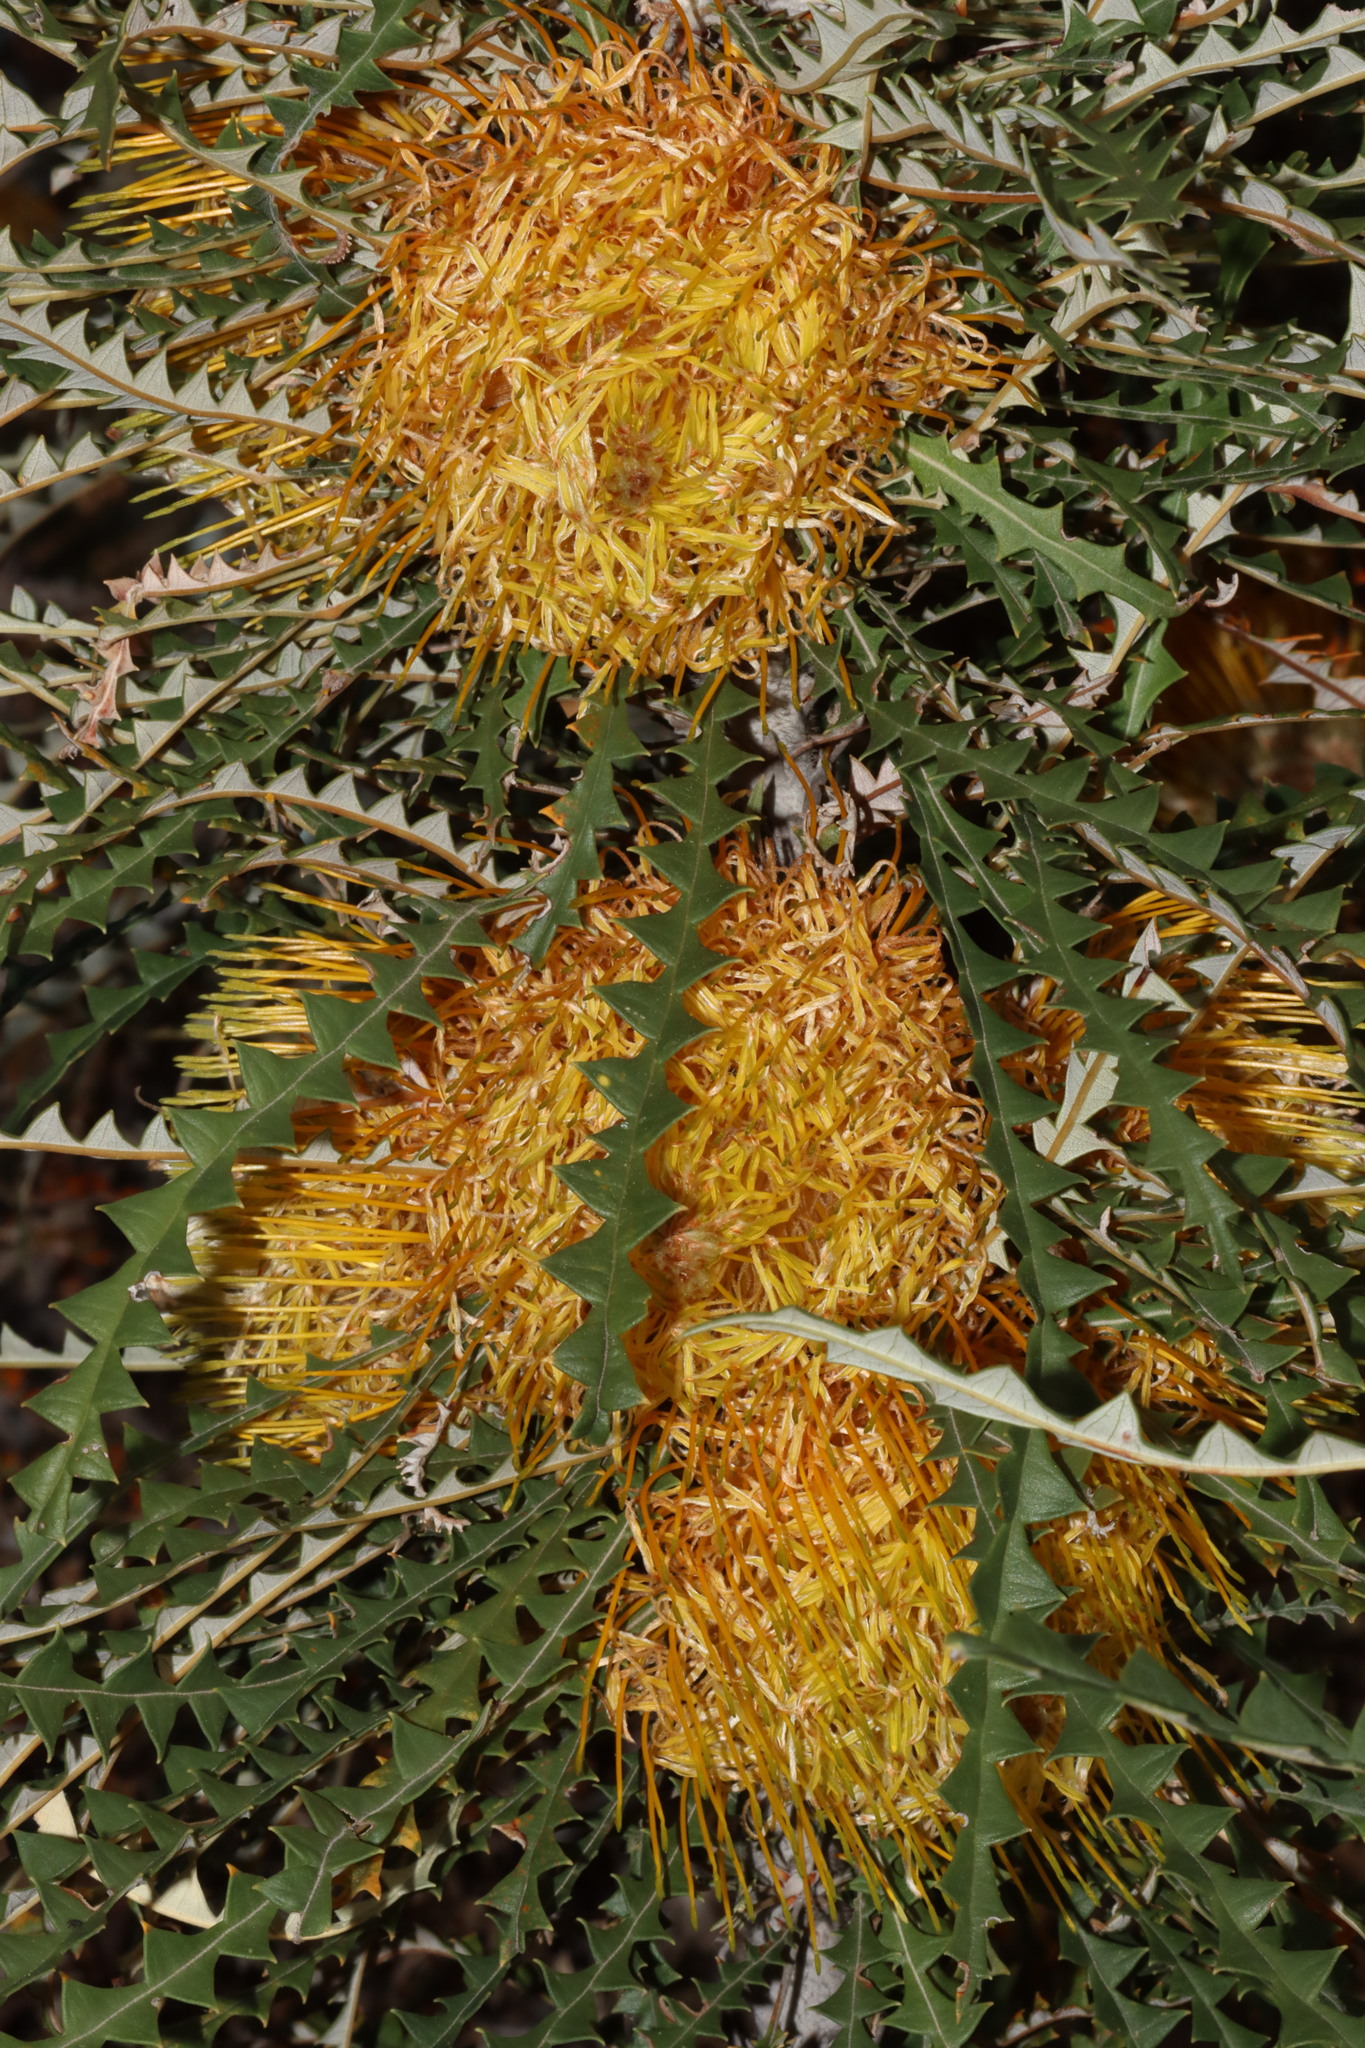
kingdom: Plantae
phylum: Tracheophyta
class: Magnoliopsida
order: Proteales
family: Proteaceae
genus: Banksia
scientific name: Banksia nobilis
